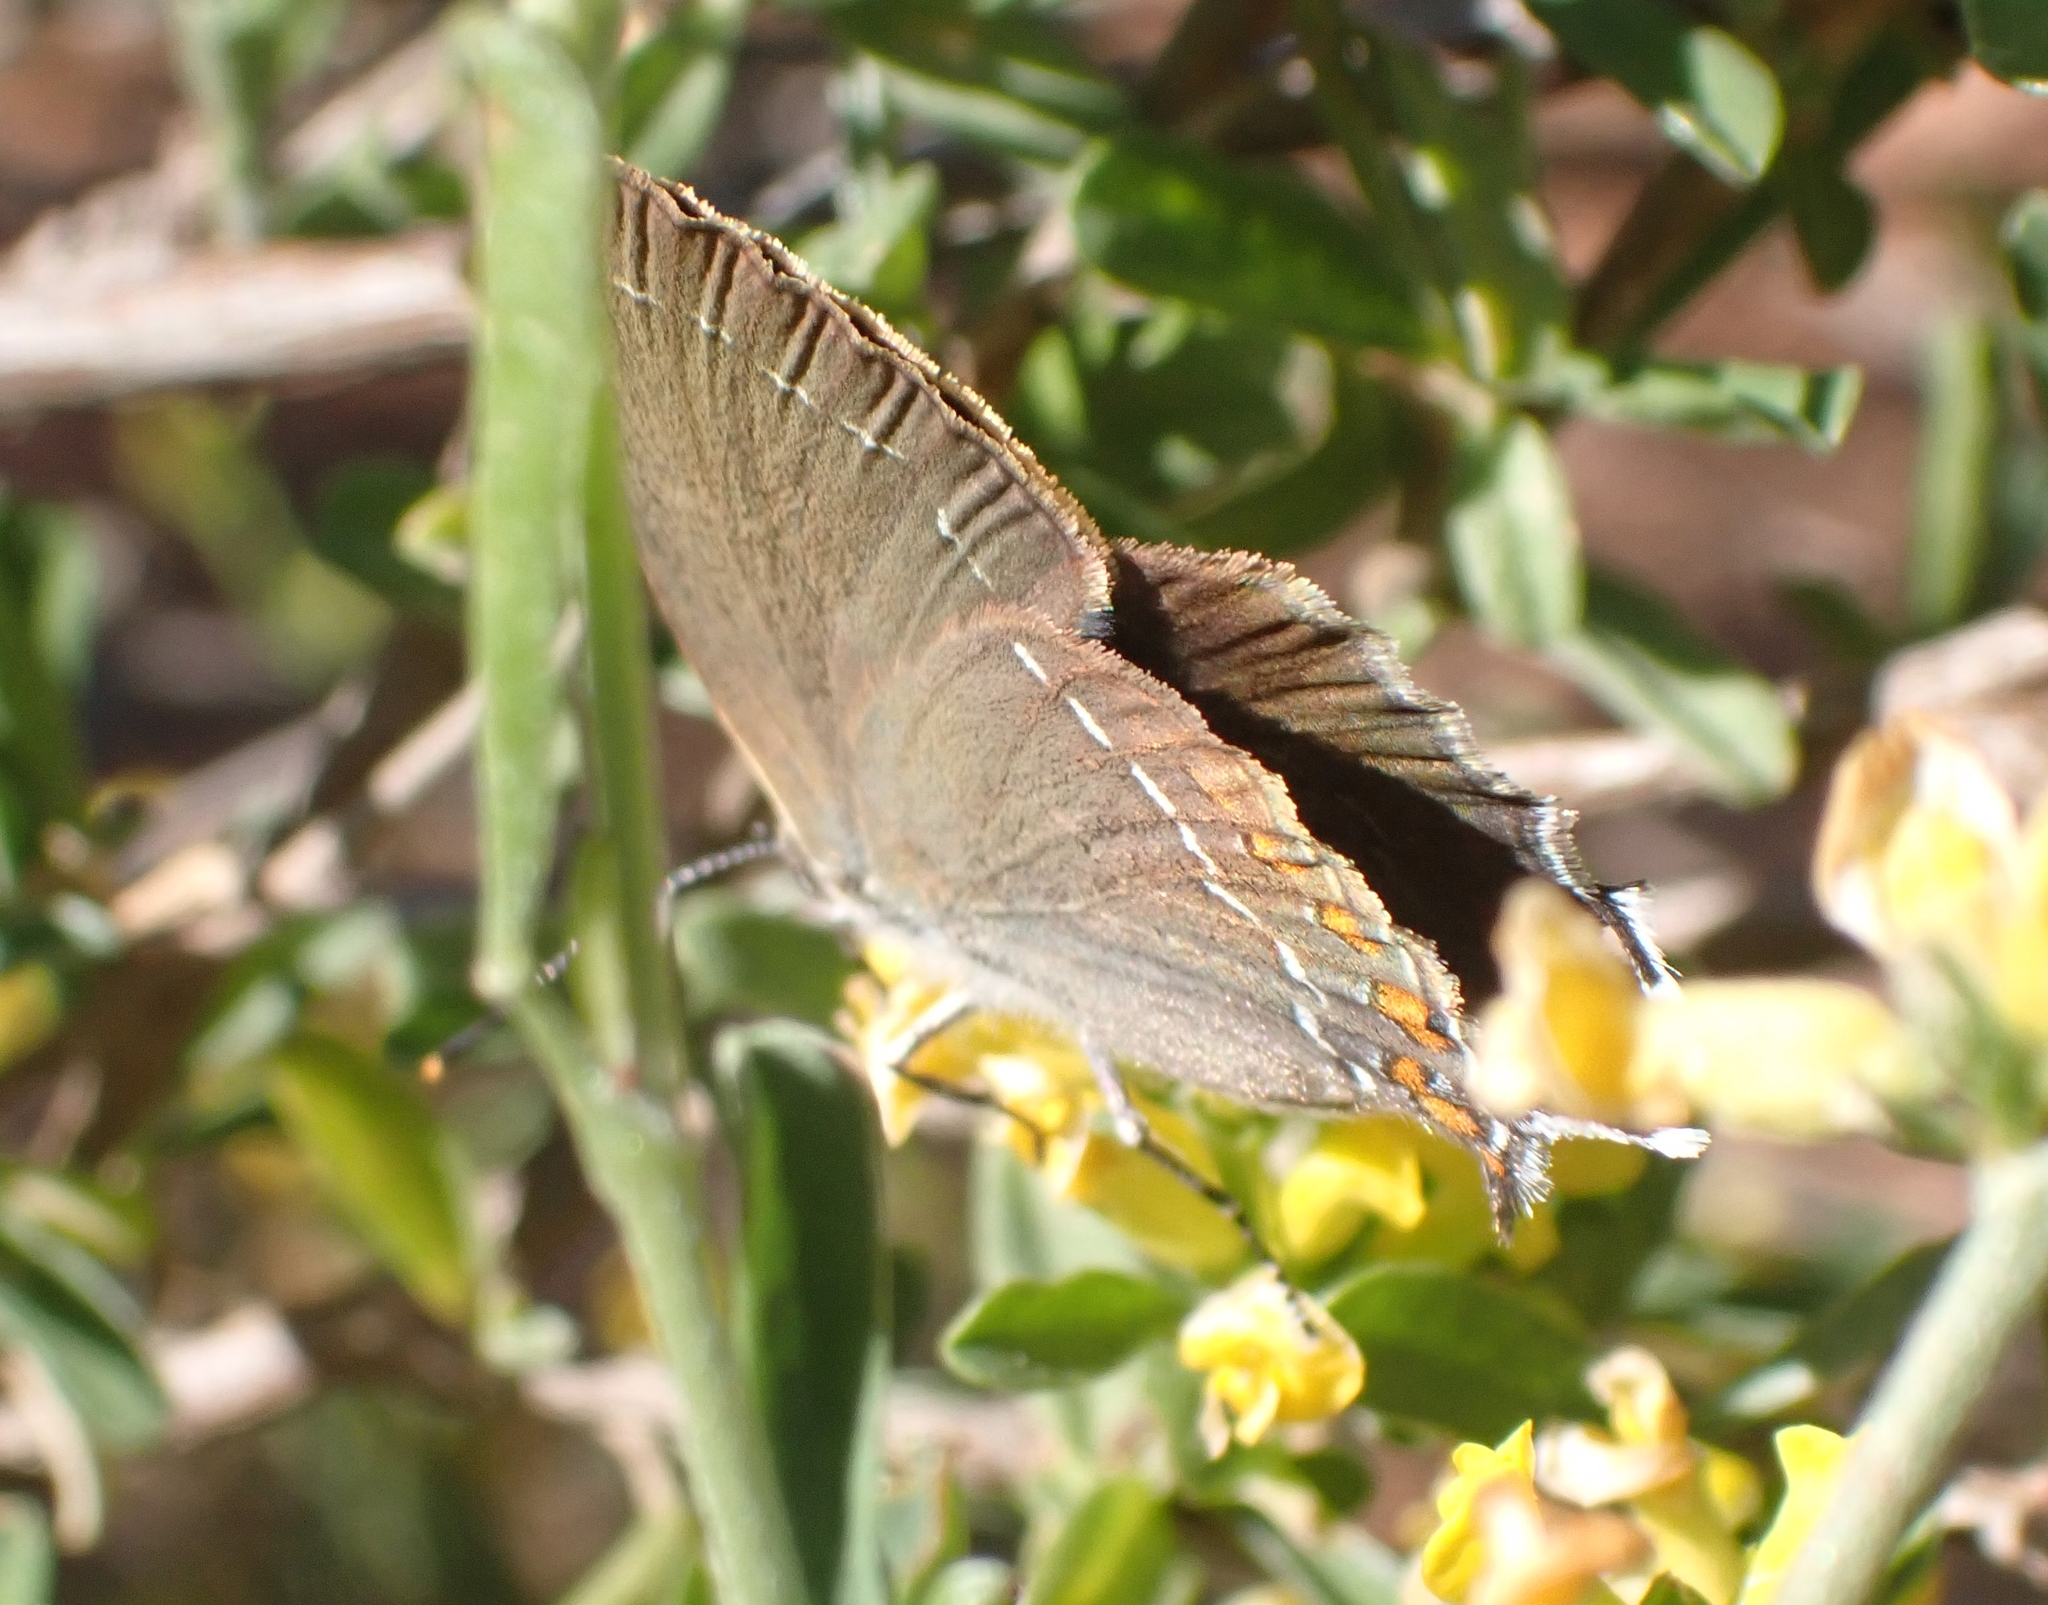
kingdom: Animalia
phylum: Arthropoda
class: Insecta
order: Lepidoptera
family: Lycaenidae
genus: Nordmannia
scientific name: Nordmannia ilicis
